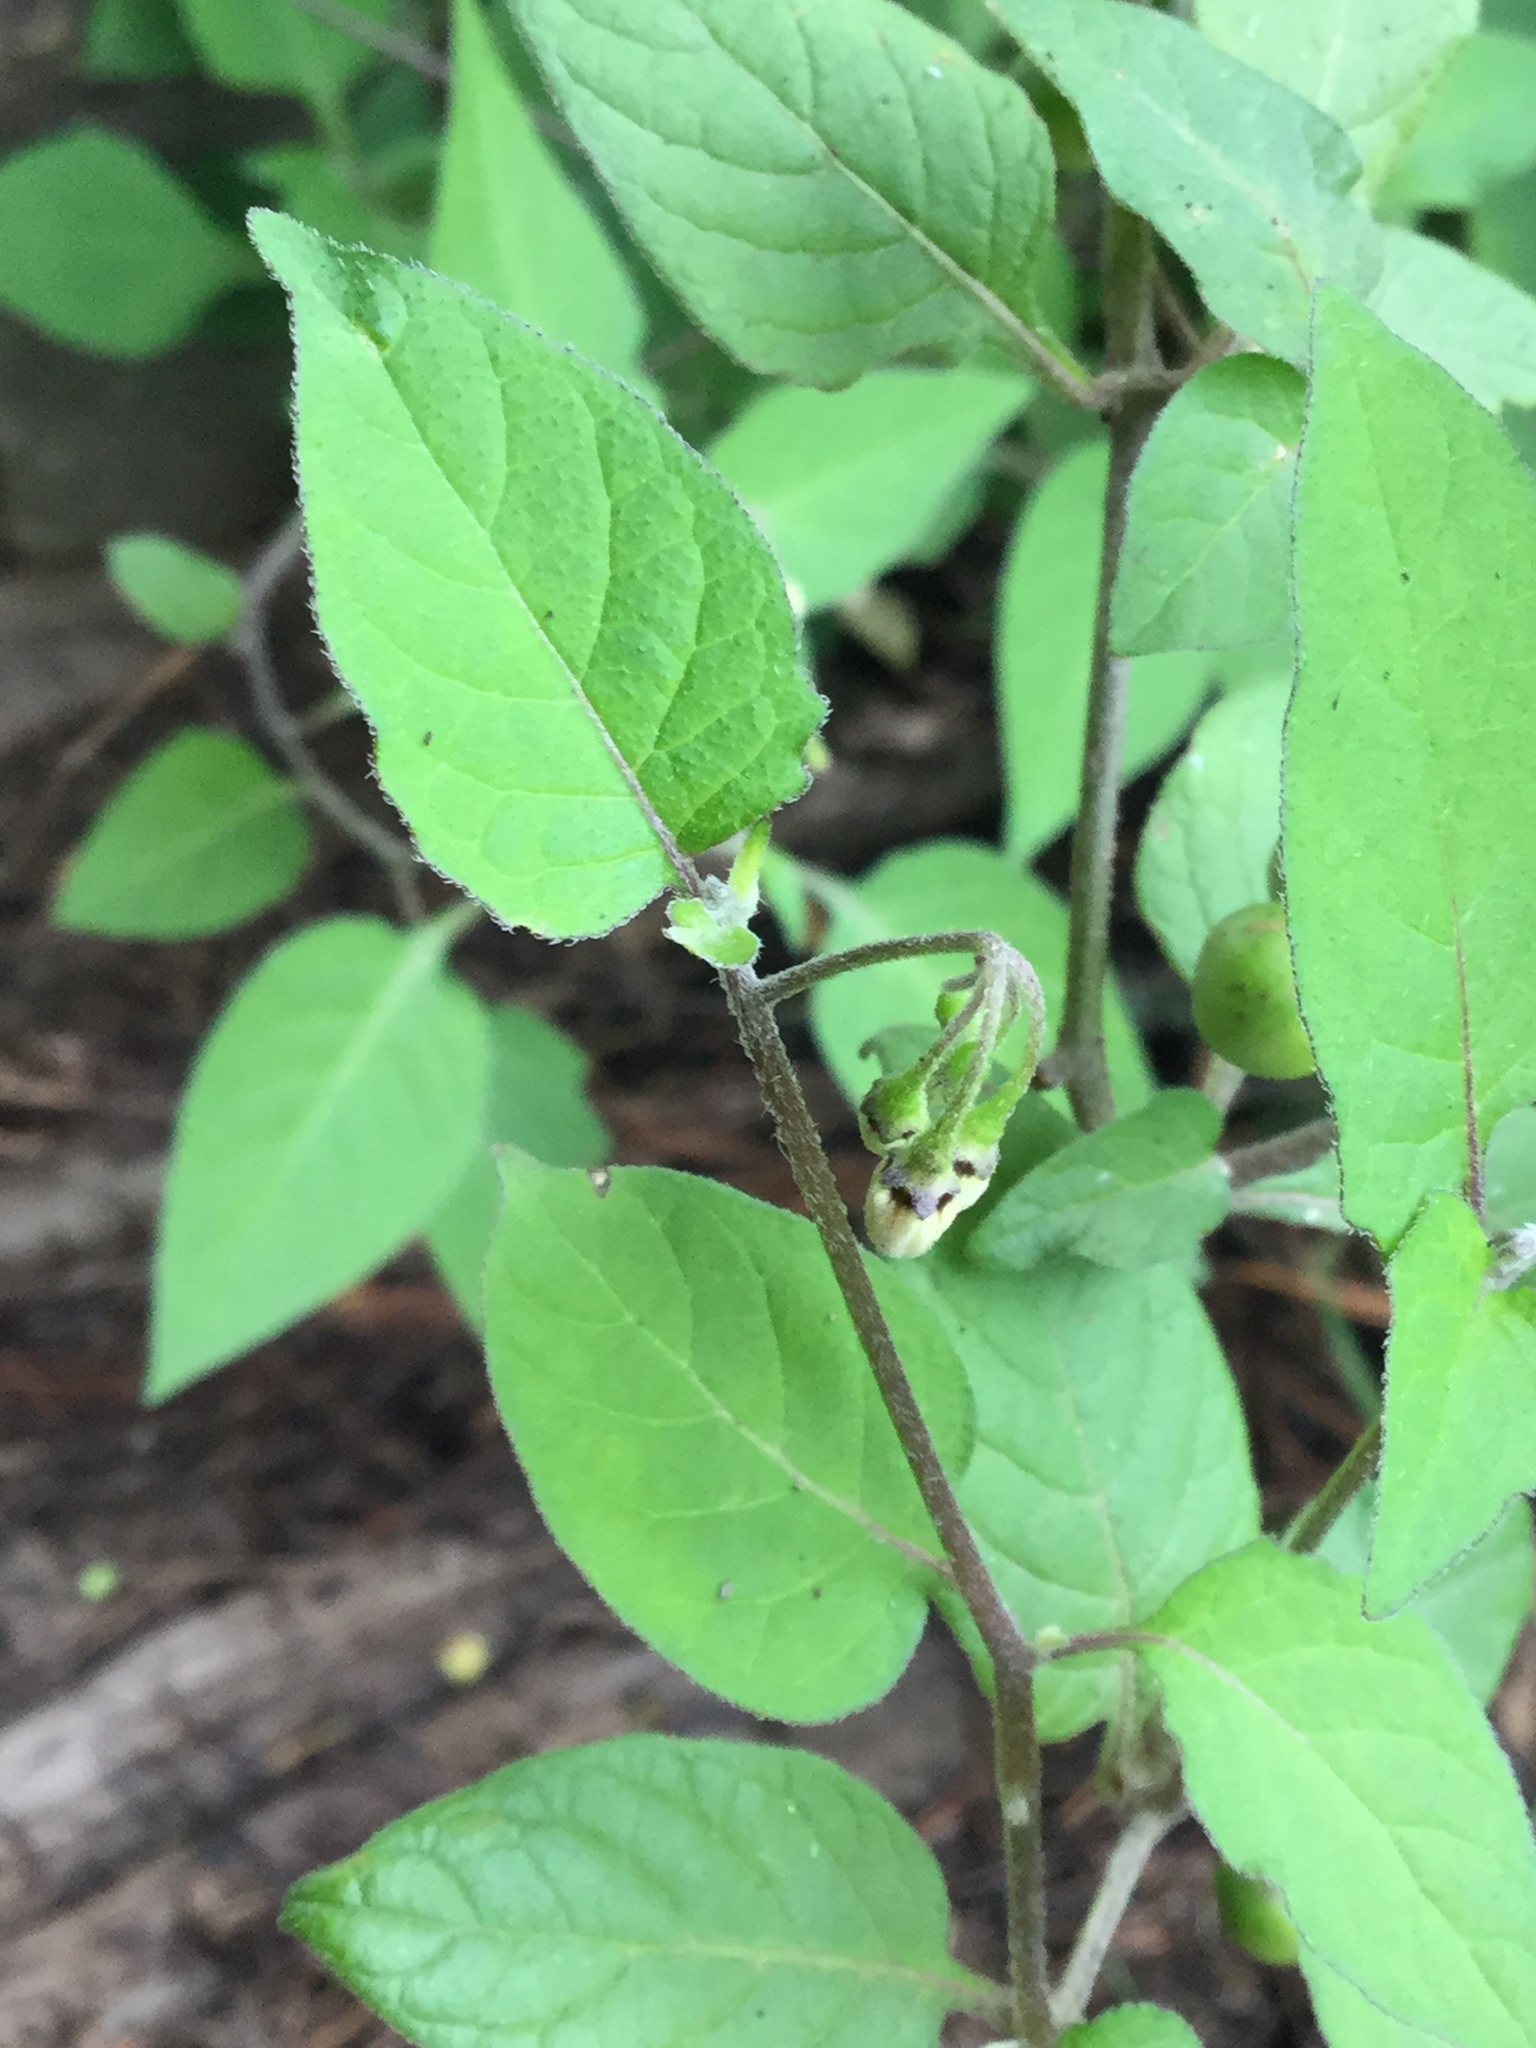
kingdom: Plantae
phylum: Tracheophyta
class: Magnoliopsida
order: Solanales
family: Solanaceae
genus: Solanum
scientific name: Solanum nigrescens
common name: Divine nightshade
